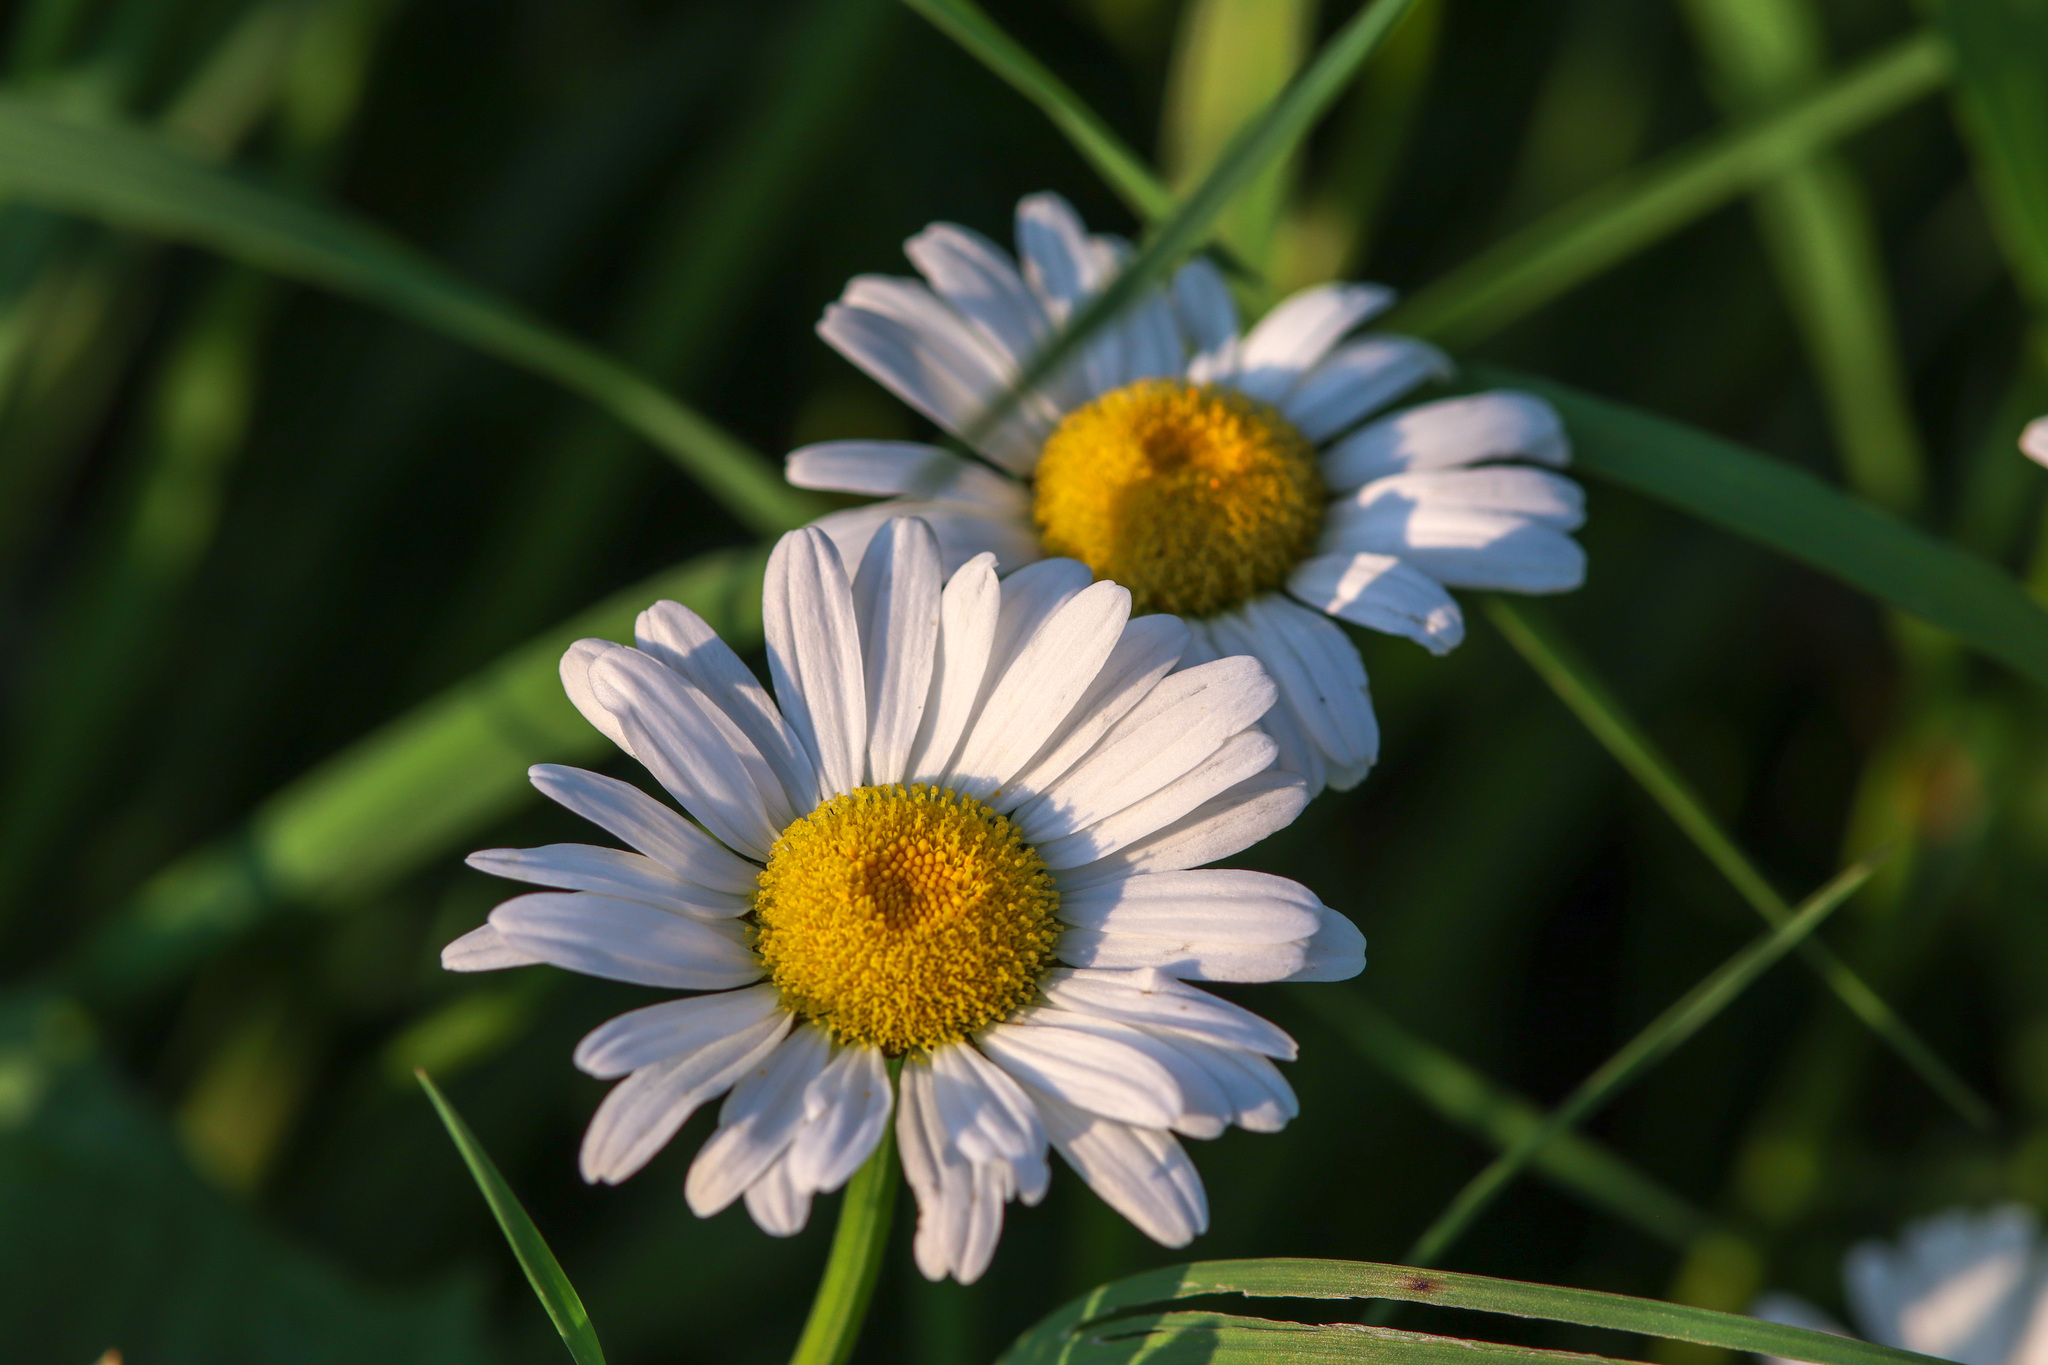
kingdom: Plantae
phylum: Tracheophyta
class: Magnoliopsida
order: Asterales
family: Asteraceae
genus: Leucanthemum
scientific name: Leucanthemum vulgare
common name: Oxeye daisy
